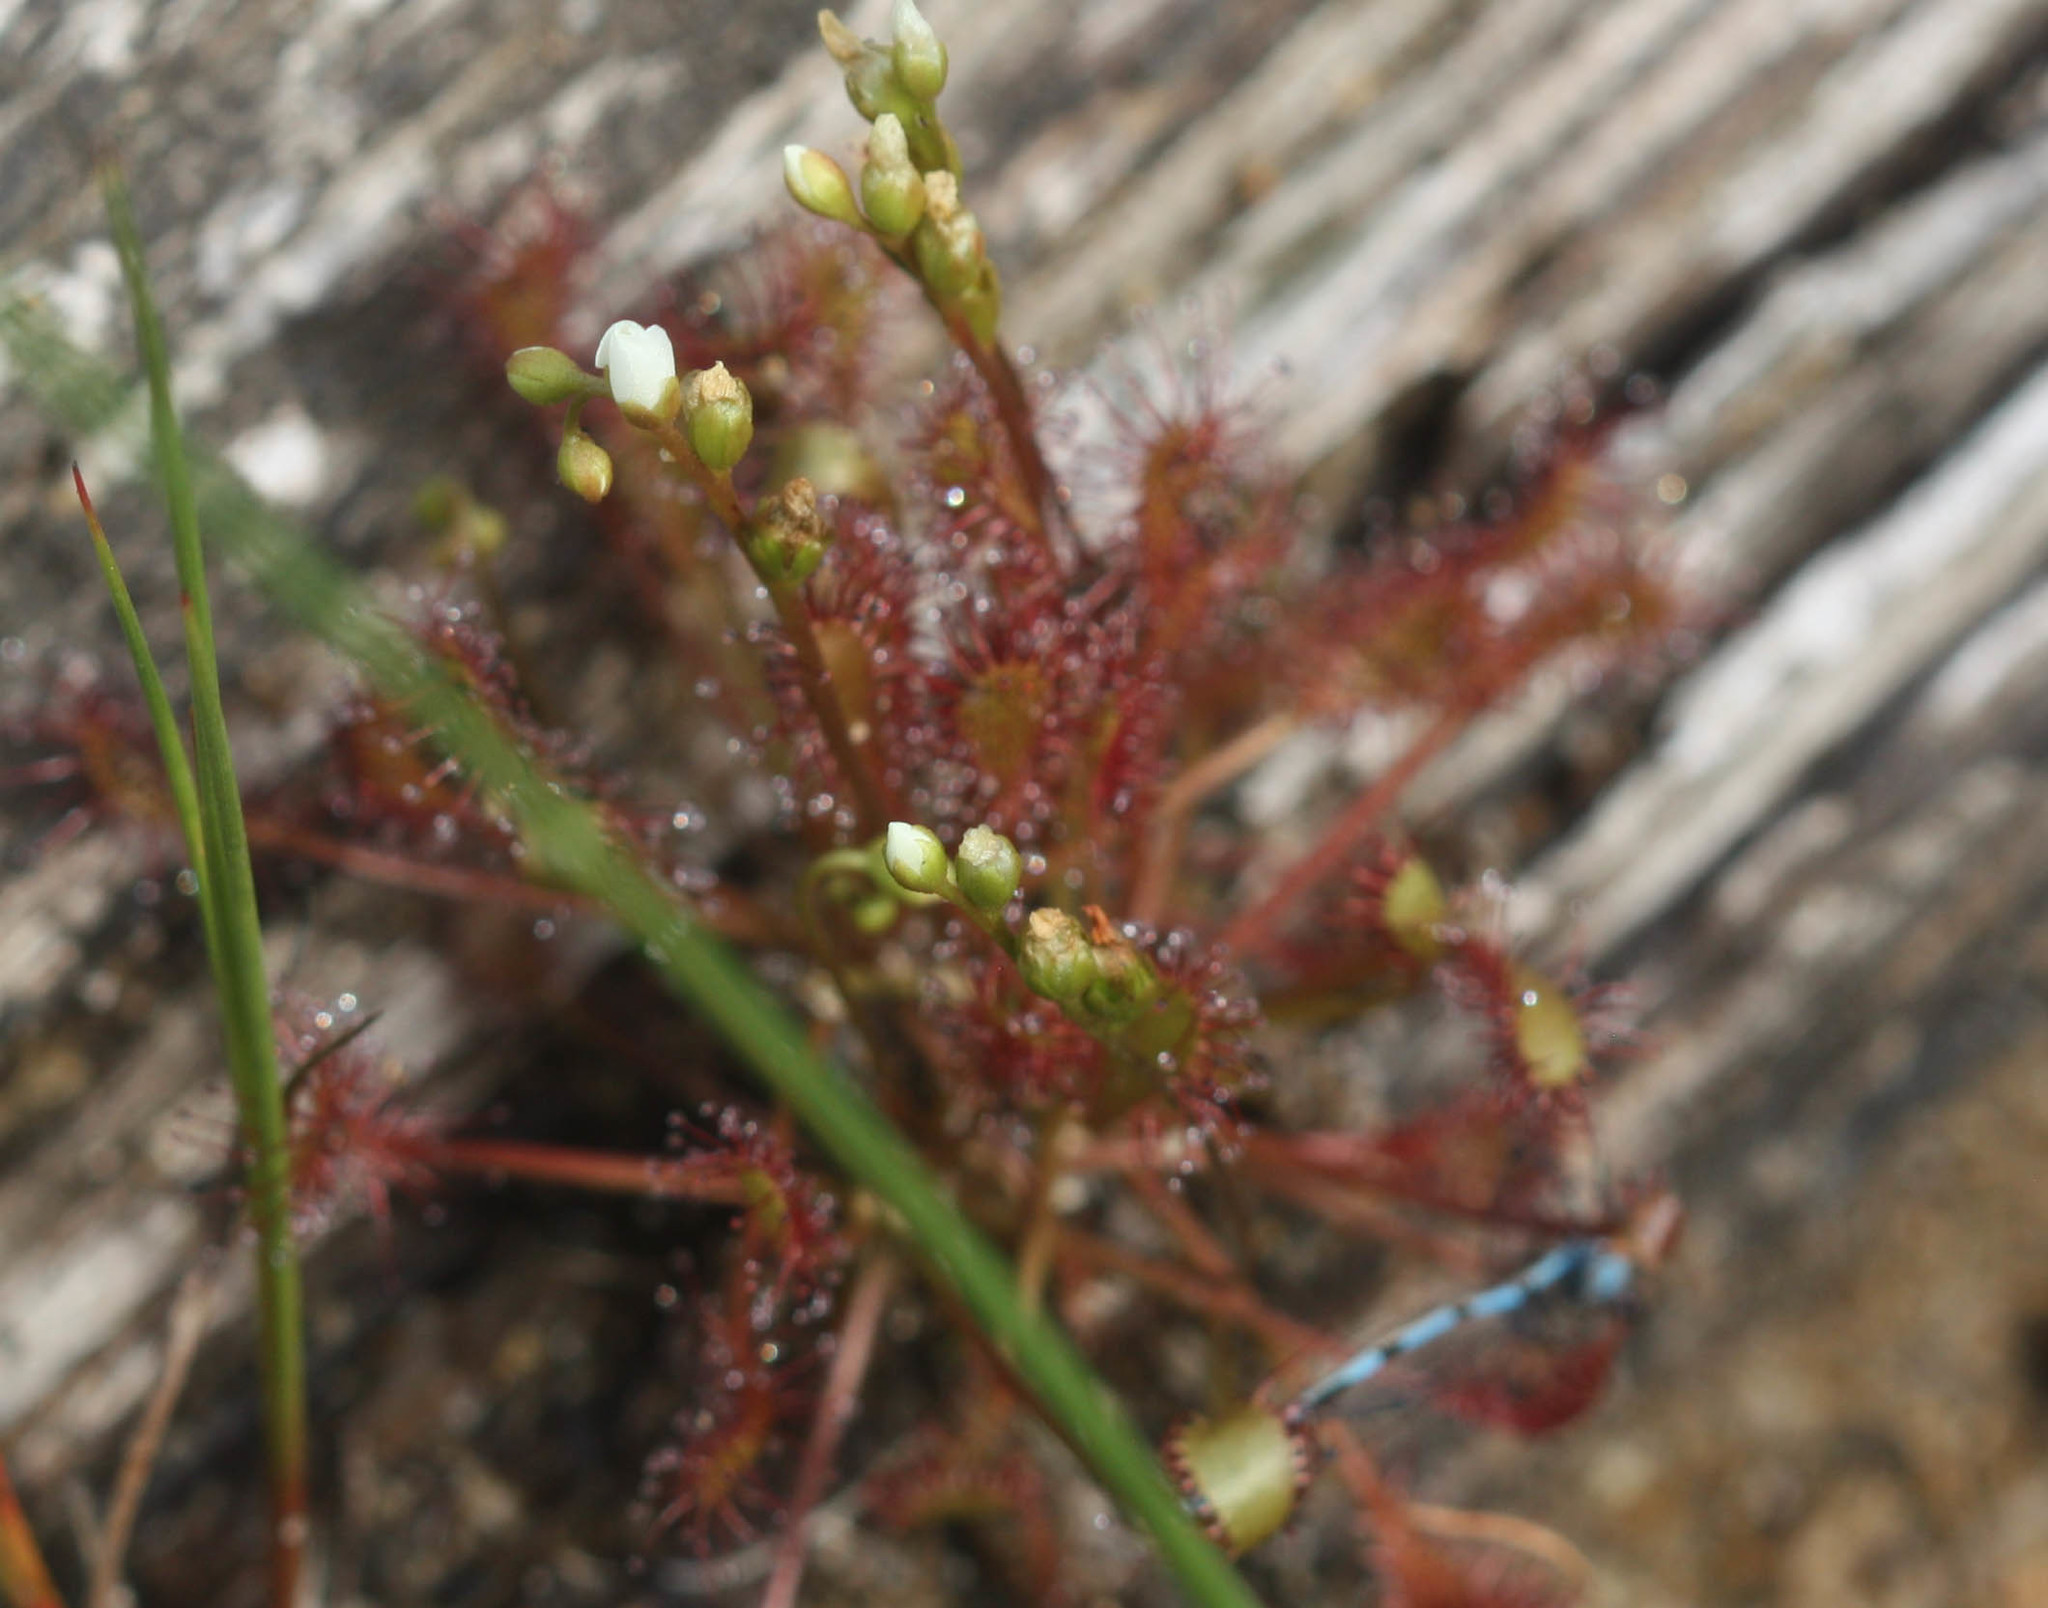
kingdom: Plantae
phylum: Tracheophyta
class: Magnoliopsida
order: Caryophyllales
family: Droseraceae
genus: Drosera
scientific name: Drosera intermedia
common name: Oblong-leaved sundew
